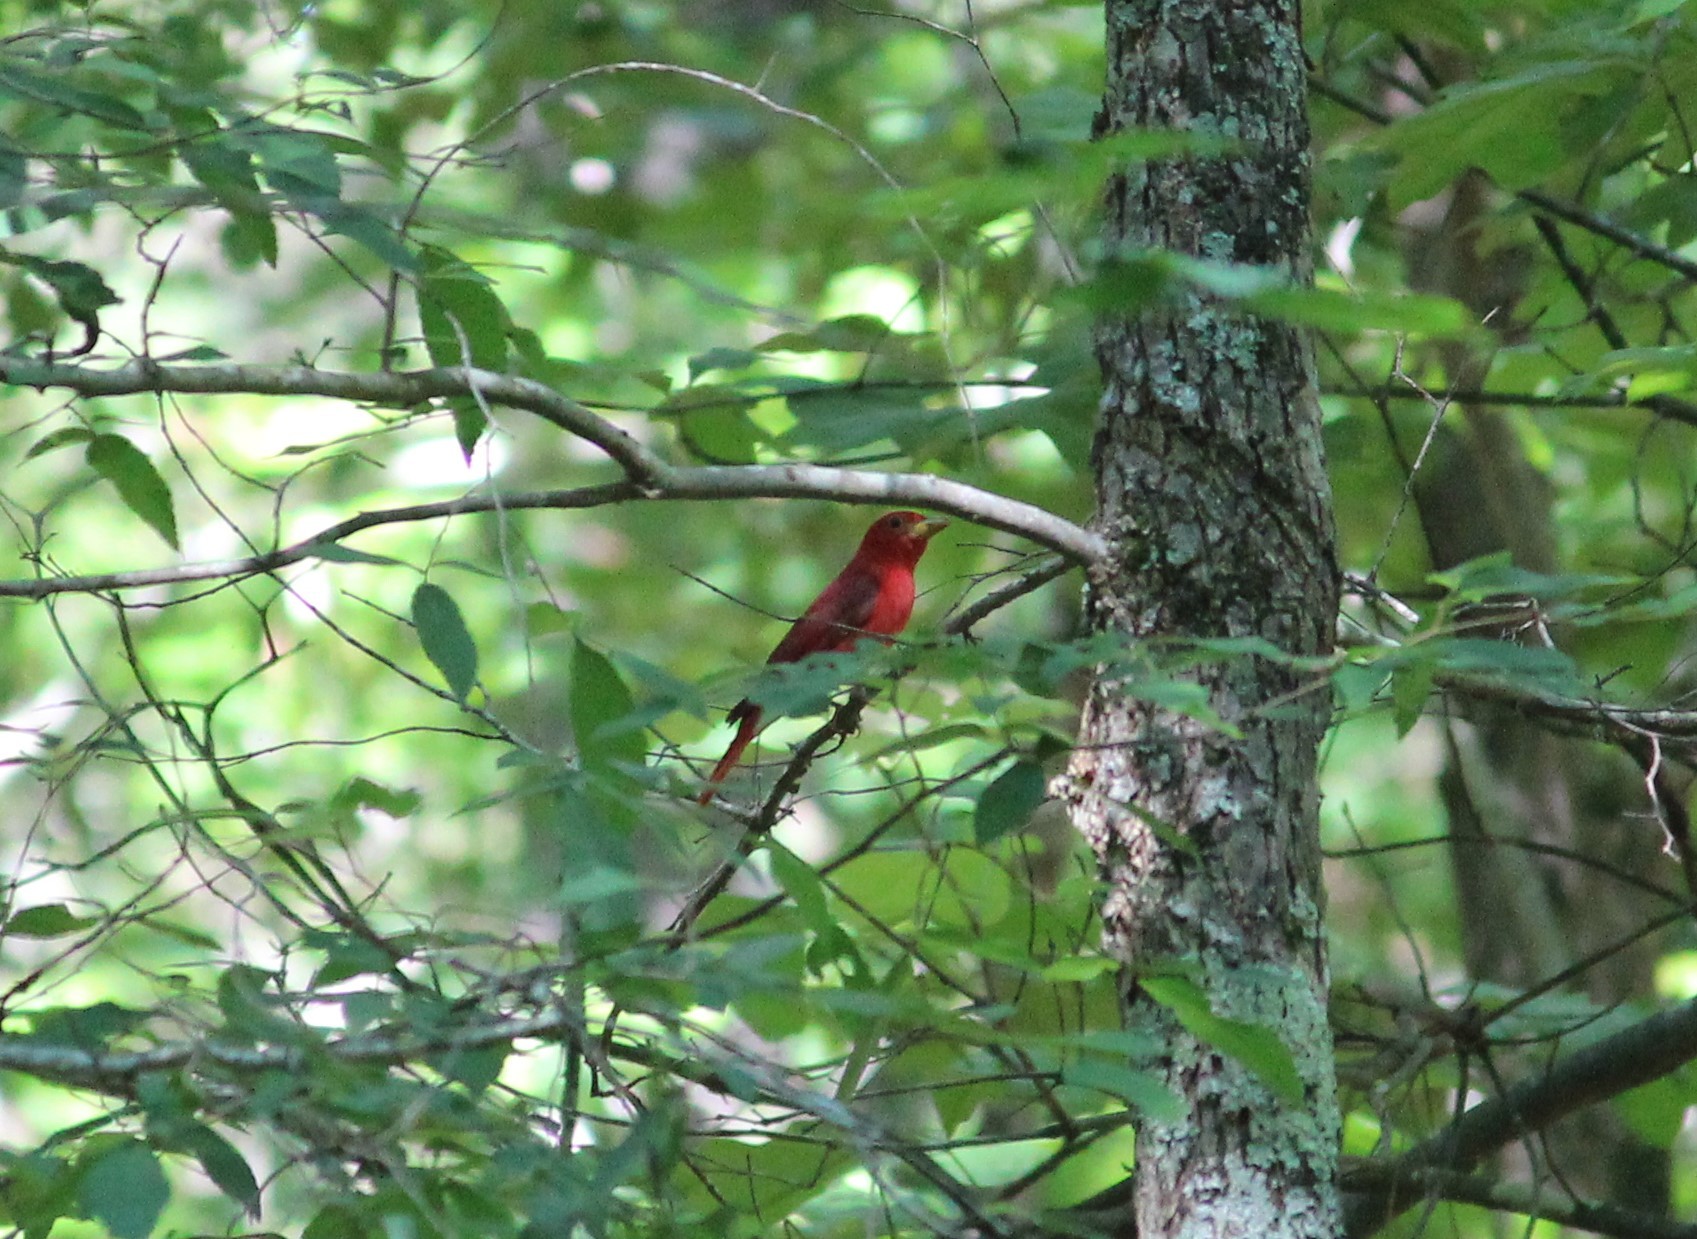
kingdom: Animalia
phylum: Chordata
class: Aves
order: Passeriformes
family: Cardinalidae
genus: Piranga
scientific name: Piranga rubra
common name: Summer tanager
